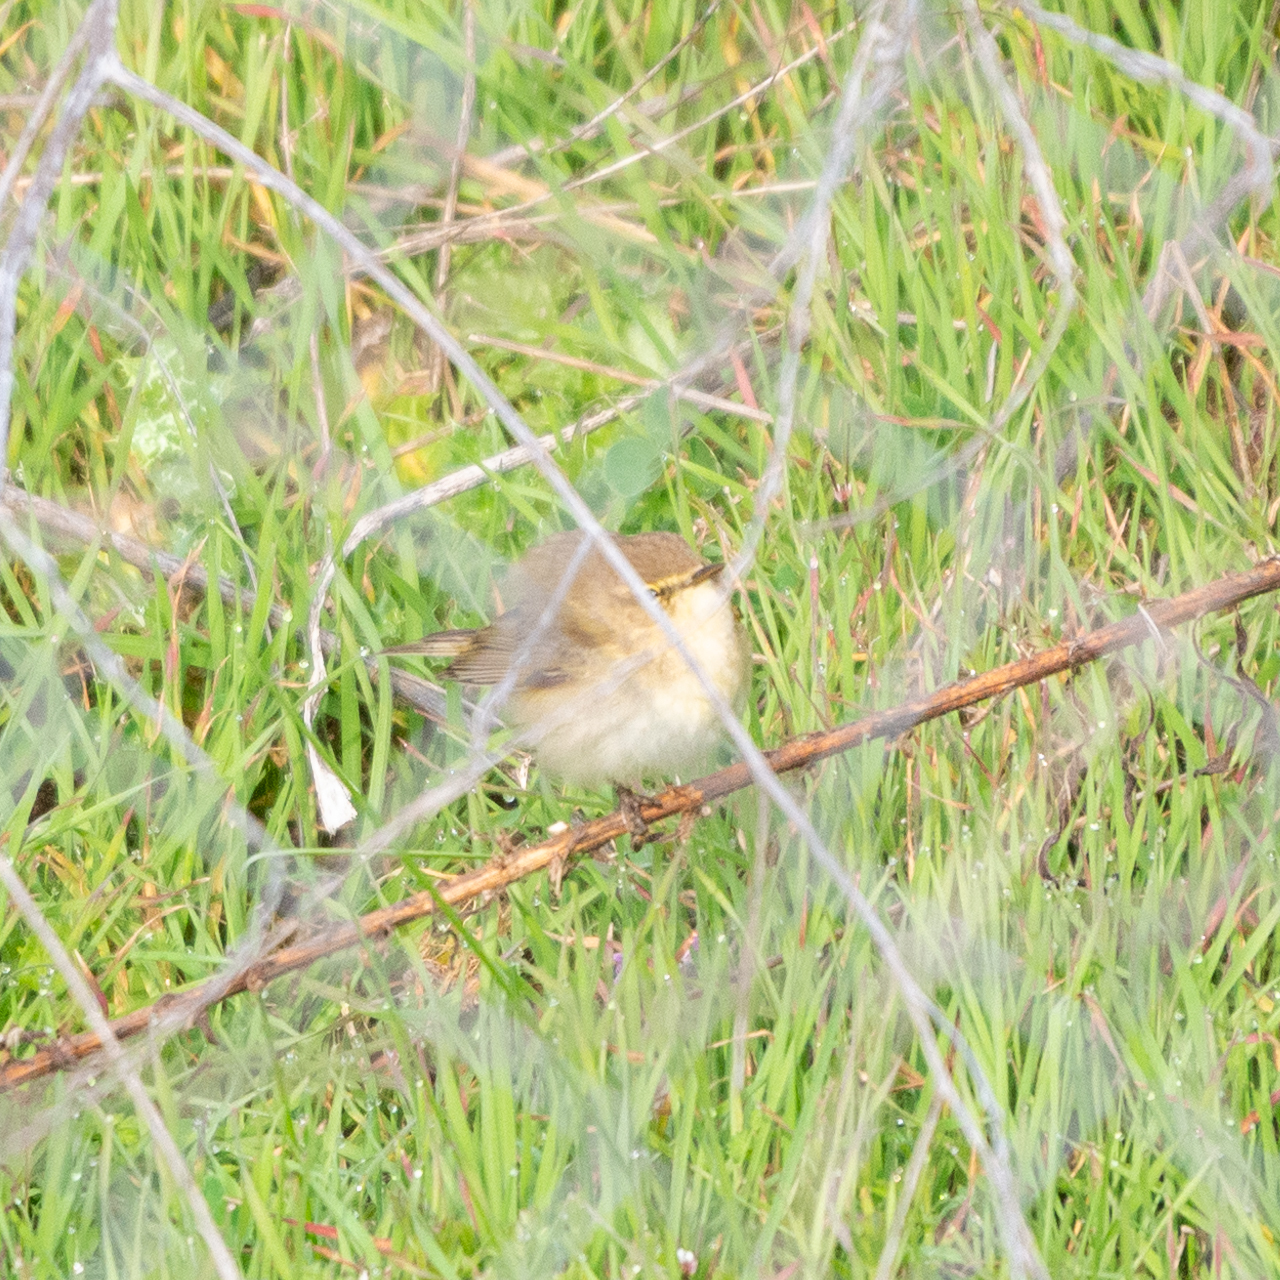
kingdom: Animalia
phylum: Chordata
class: Aves
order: Passeriformes
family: Phylloscopidae
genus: Phylloscopus
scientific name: Phylloscopus collybita
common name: Common chiffchaff
